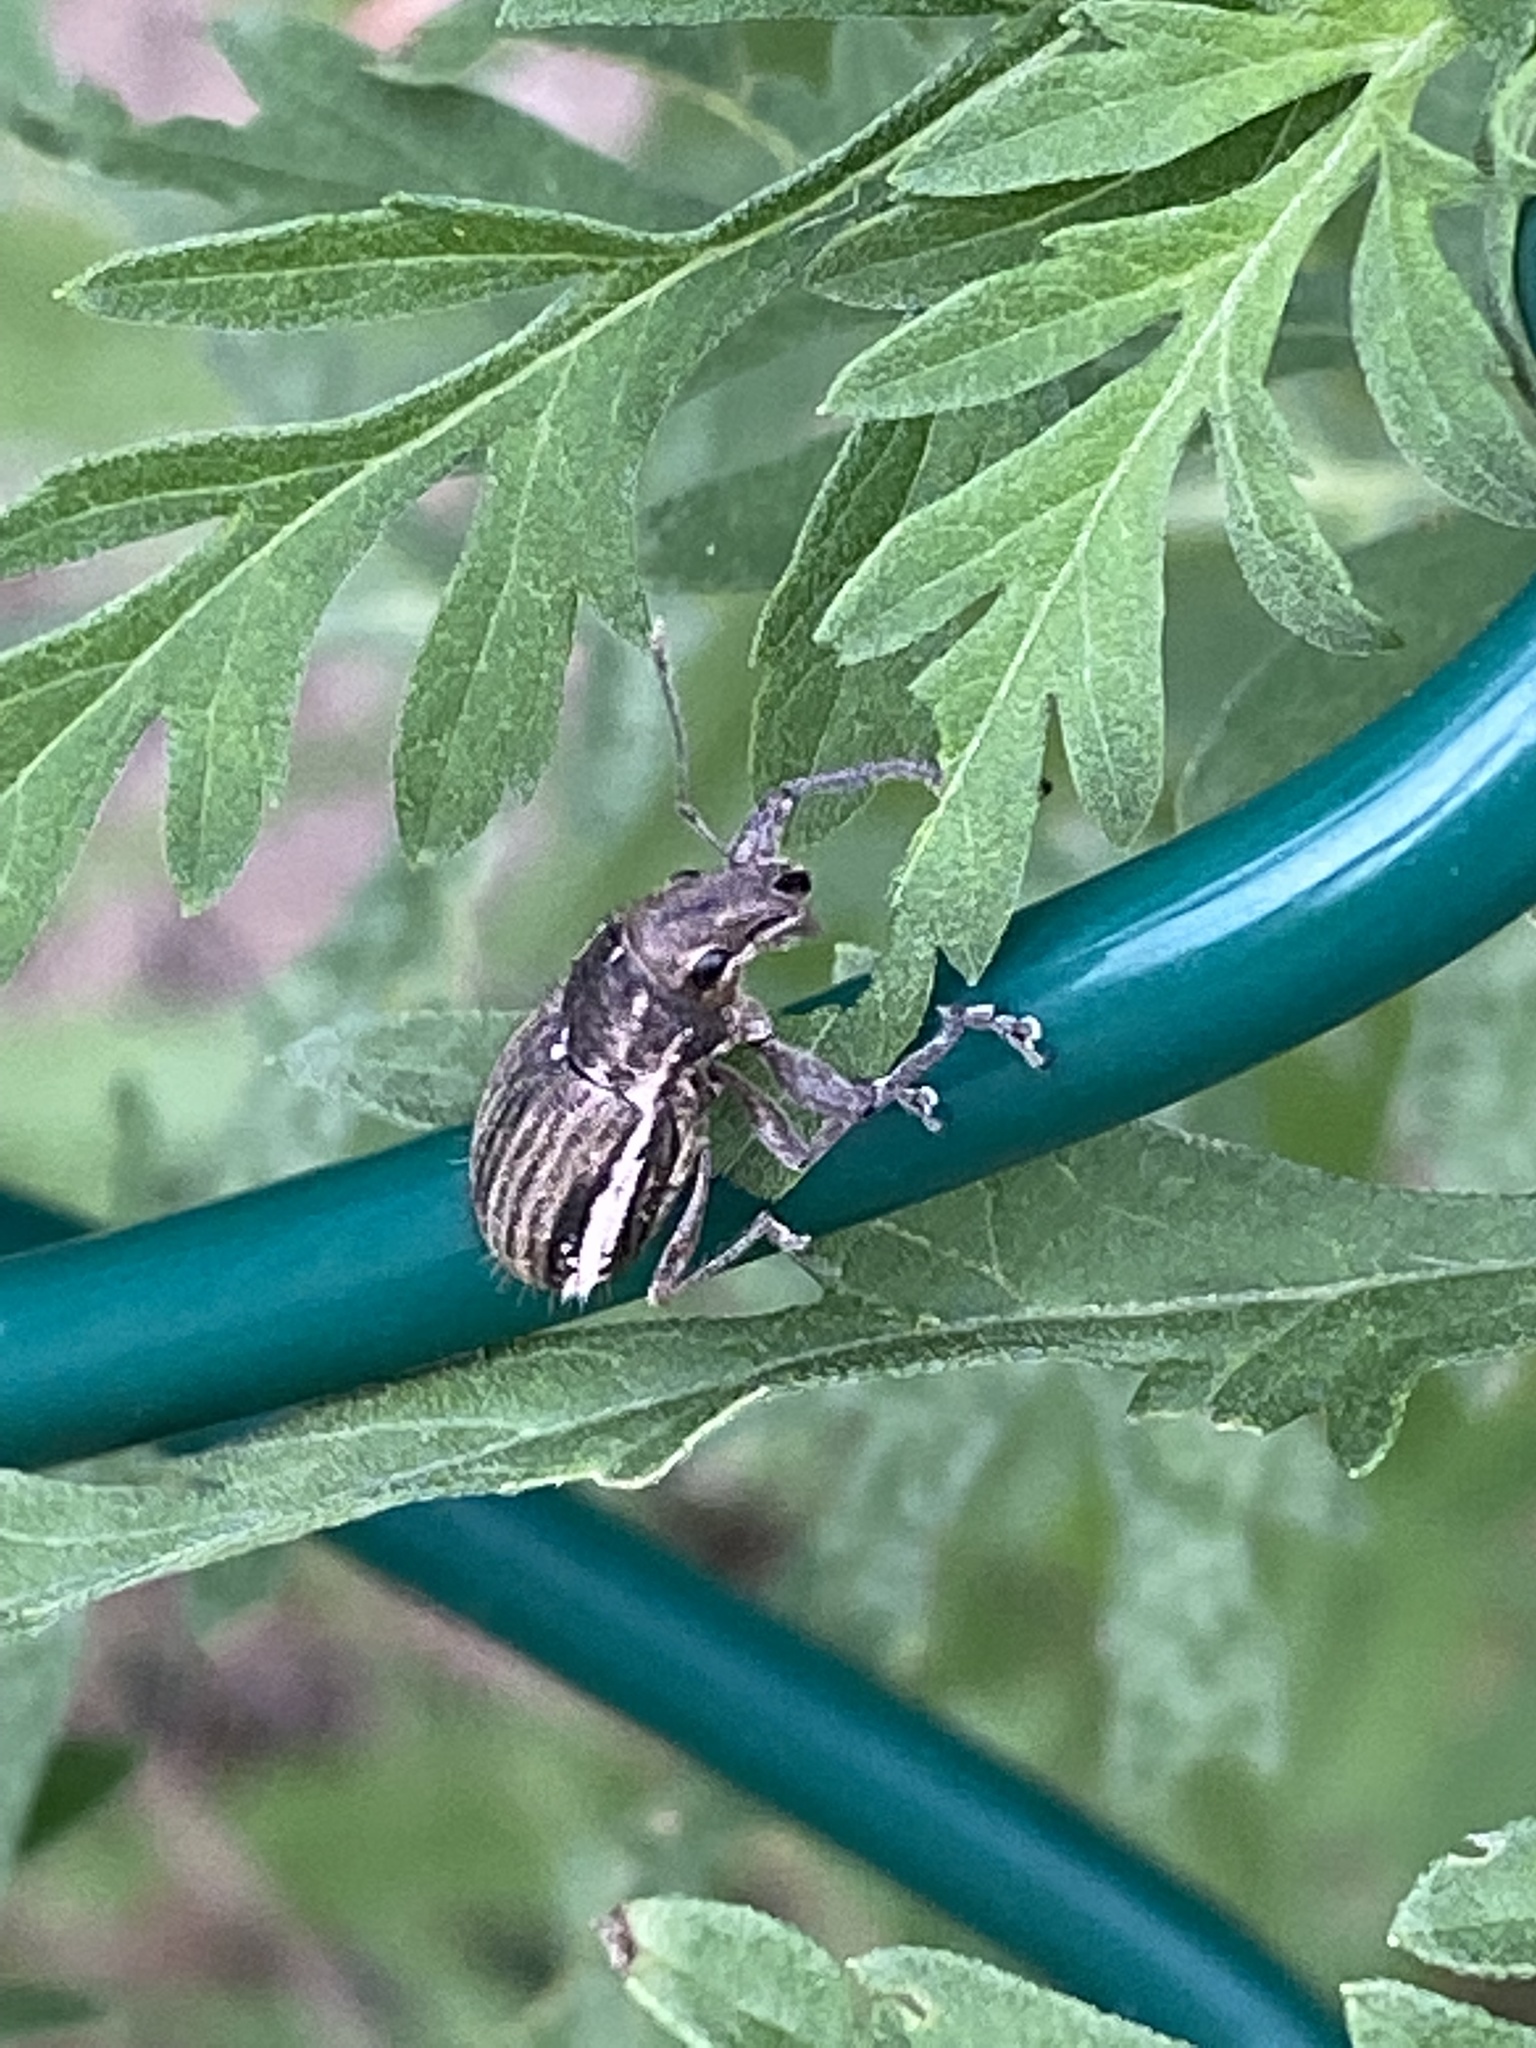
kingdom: Animalia
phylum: Arthropoda
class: Insecta
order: Coleoptera
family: Curculionidae
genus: Naupactus
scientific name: Naupactus leucoloma
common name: Whitefringed beetle
